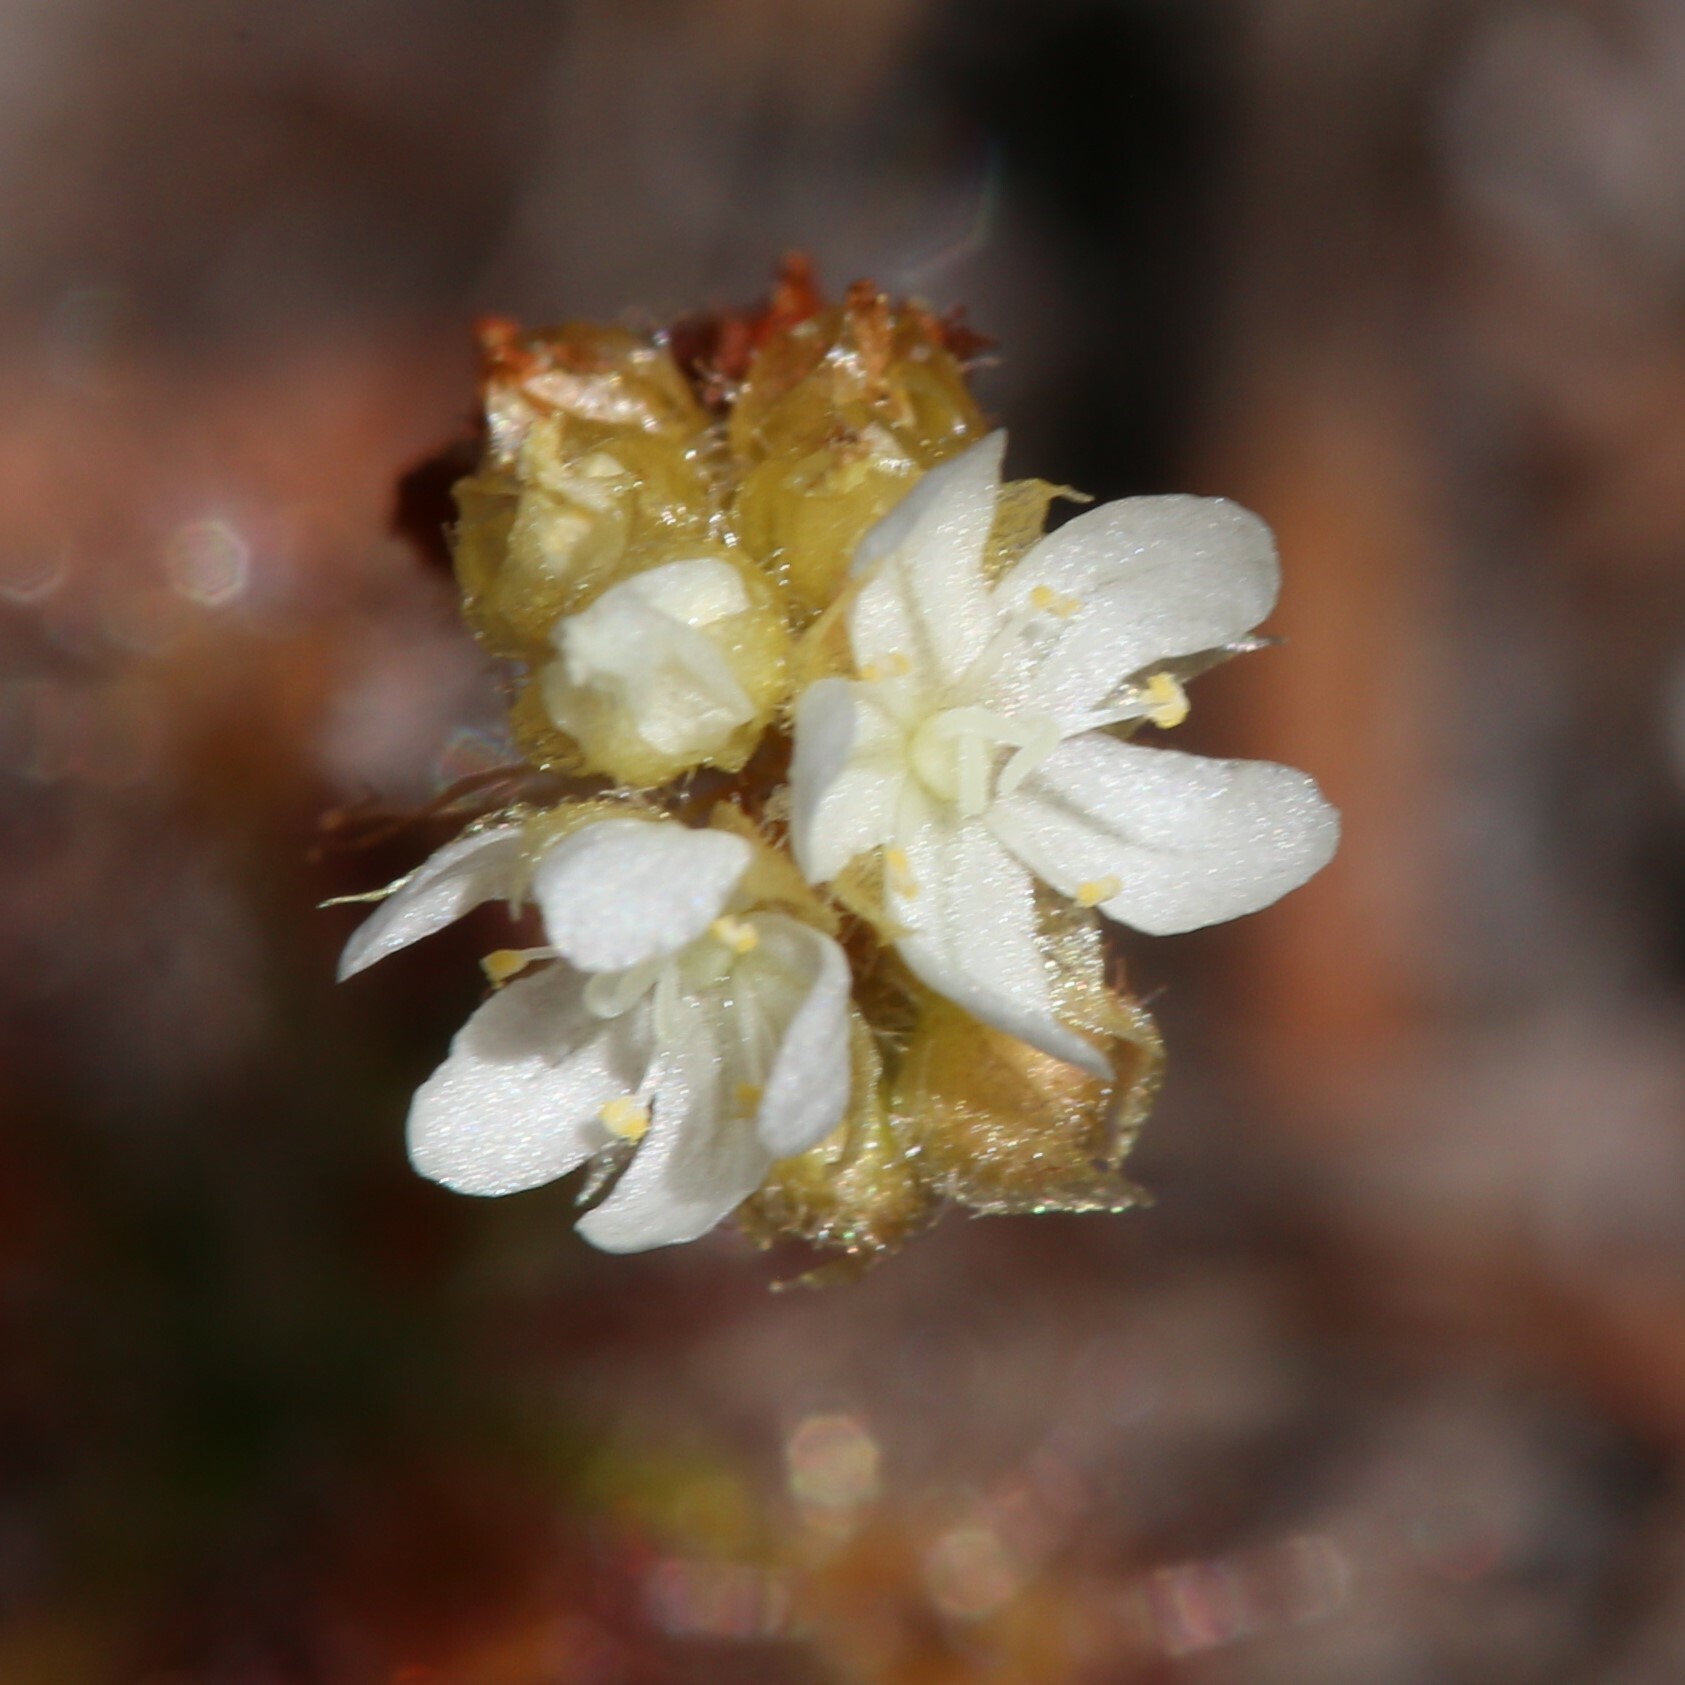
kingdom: Plantae
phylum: Tracheophyta
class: Magnoliopsida
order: Caryophyllales
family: Droseraceae
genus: Drosera
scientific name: Drosera paleacea
